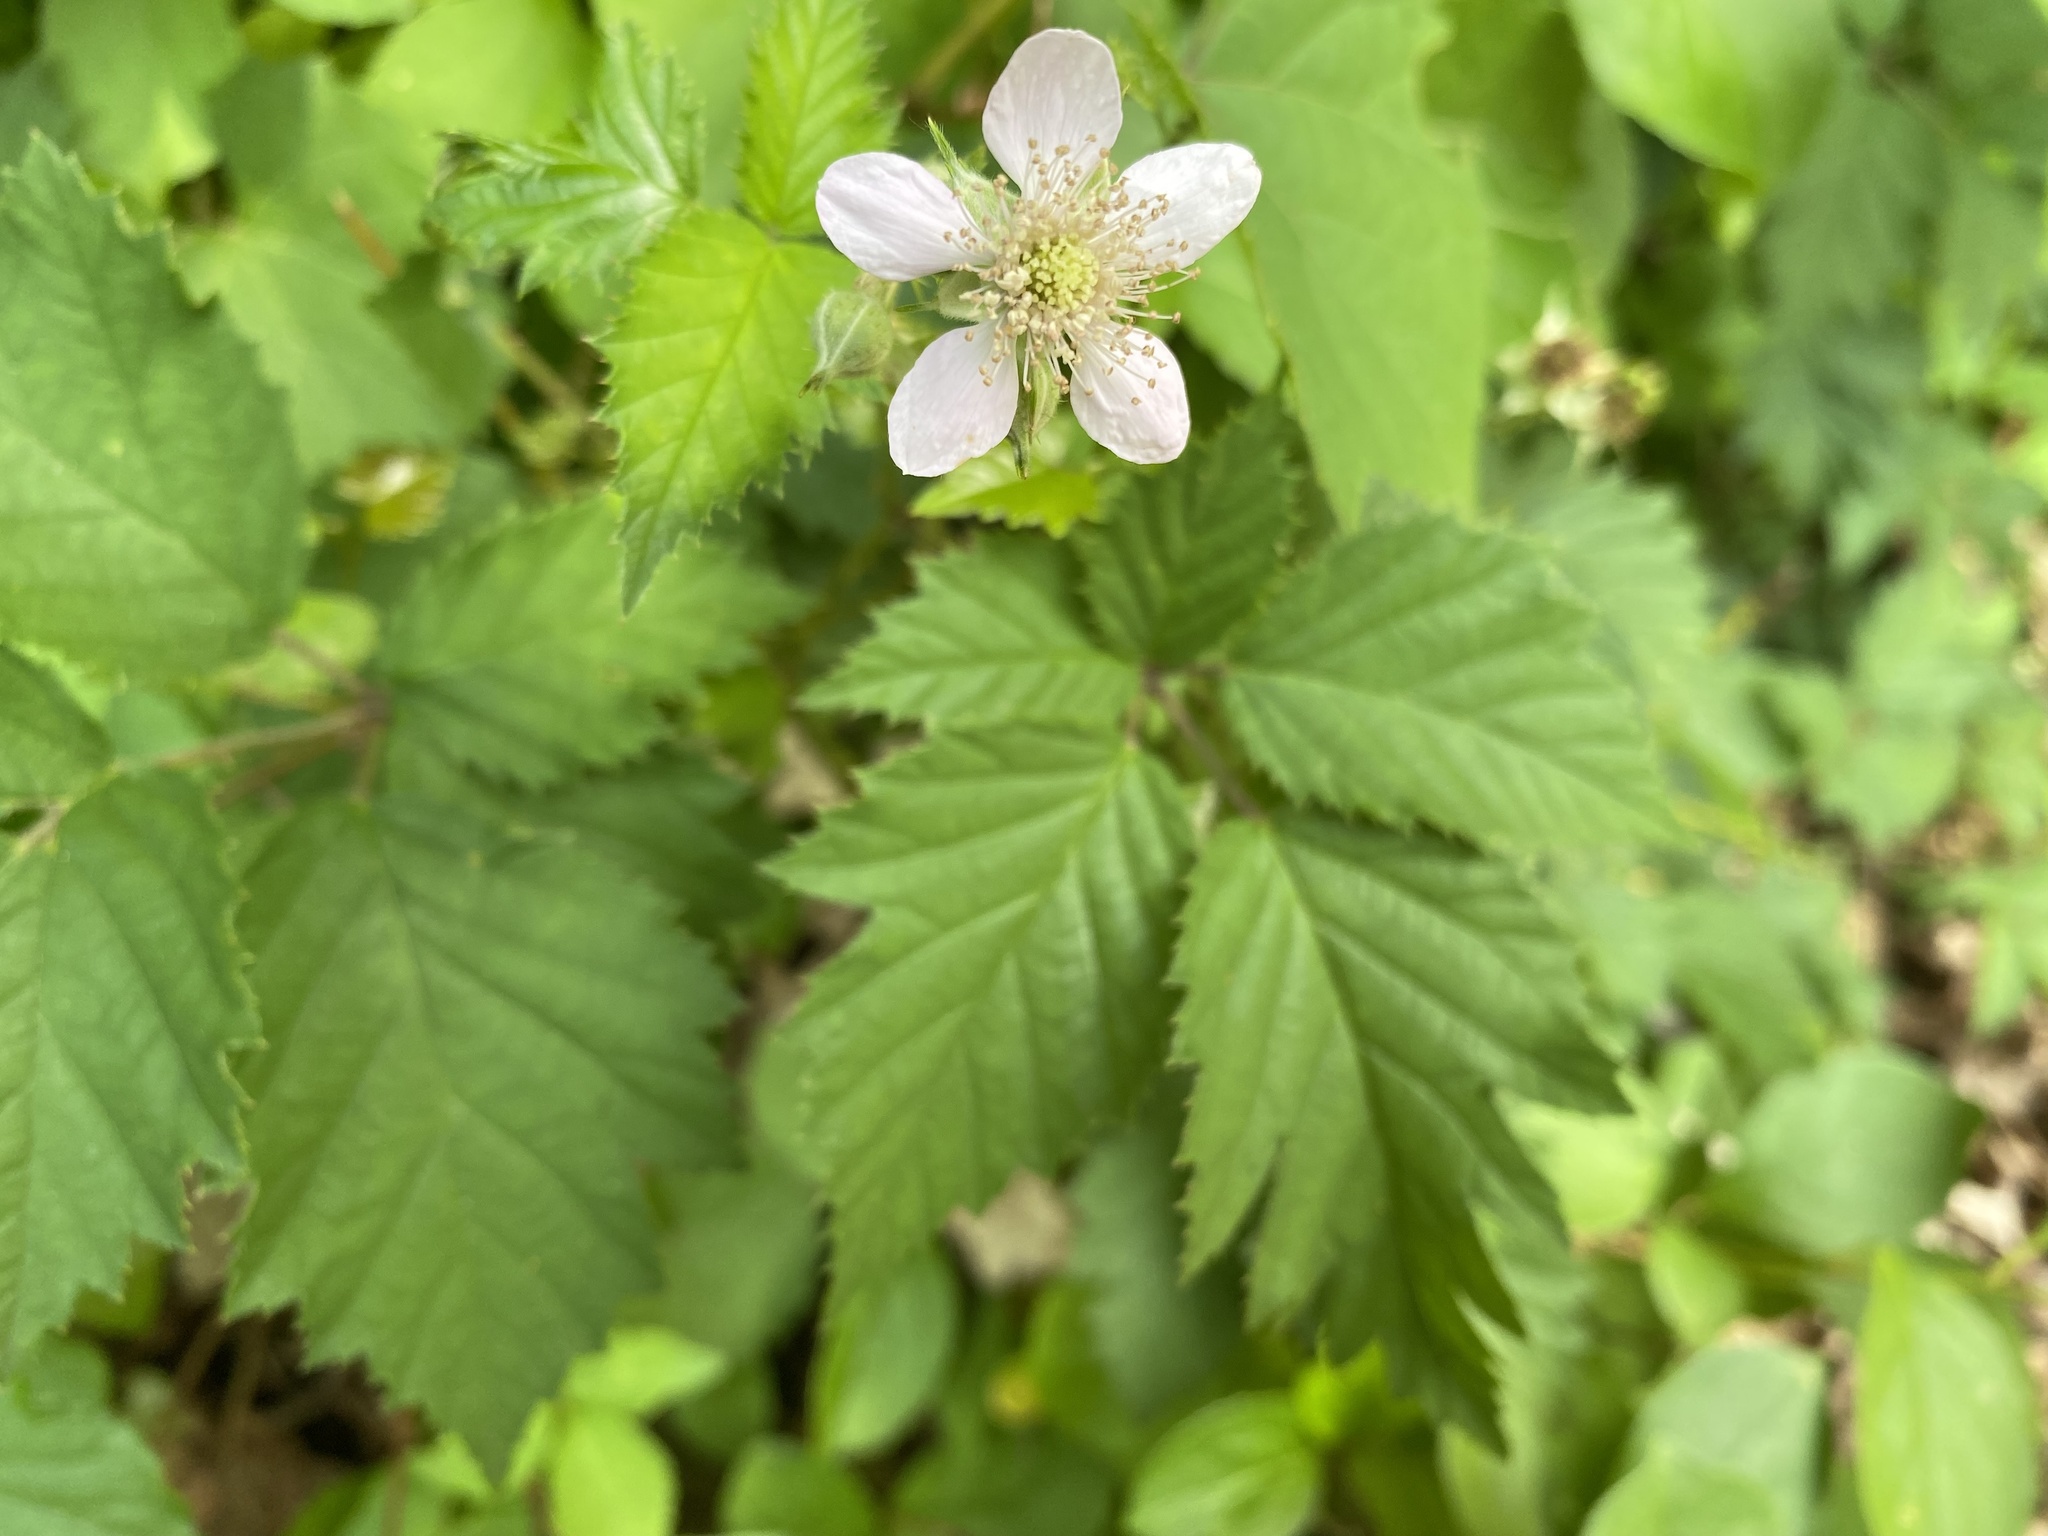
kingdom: Plantae
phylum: Tracheophyta
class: Magnoliopsida
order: Rosales
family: Rosaceae
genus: Rubus
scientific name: Rubus laciniatus
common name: Evergreen blackberry
